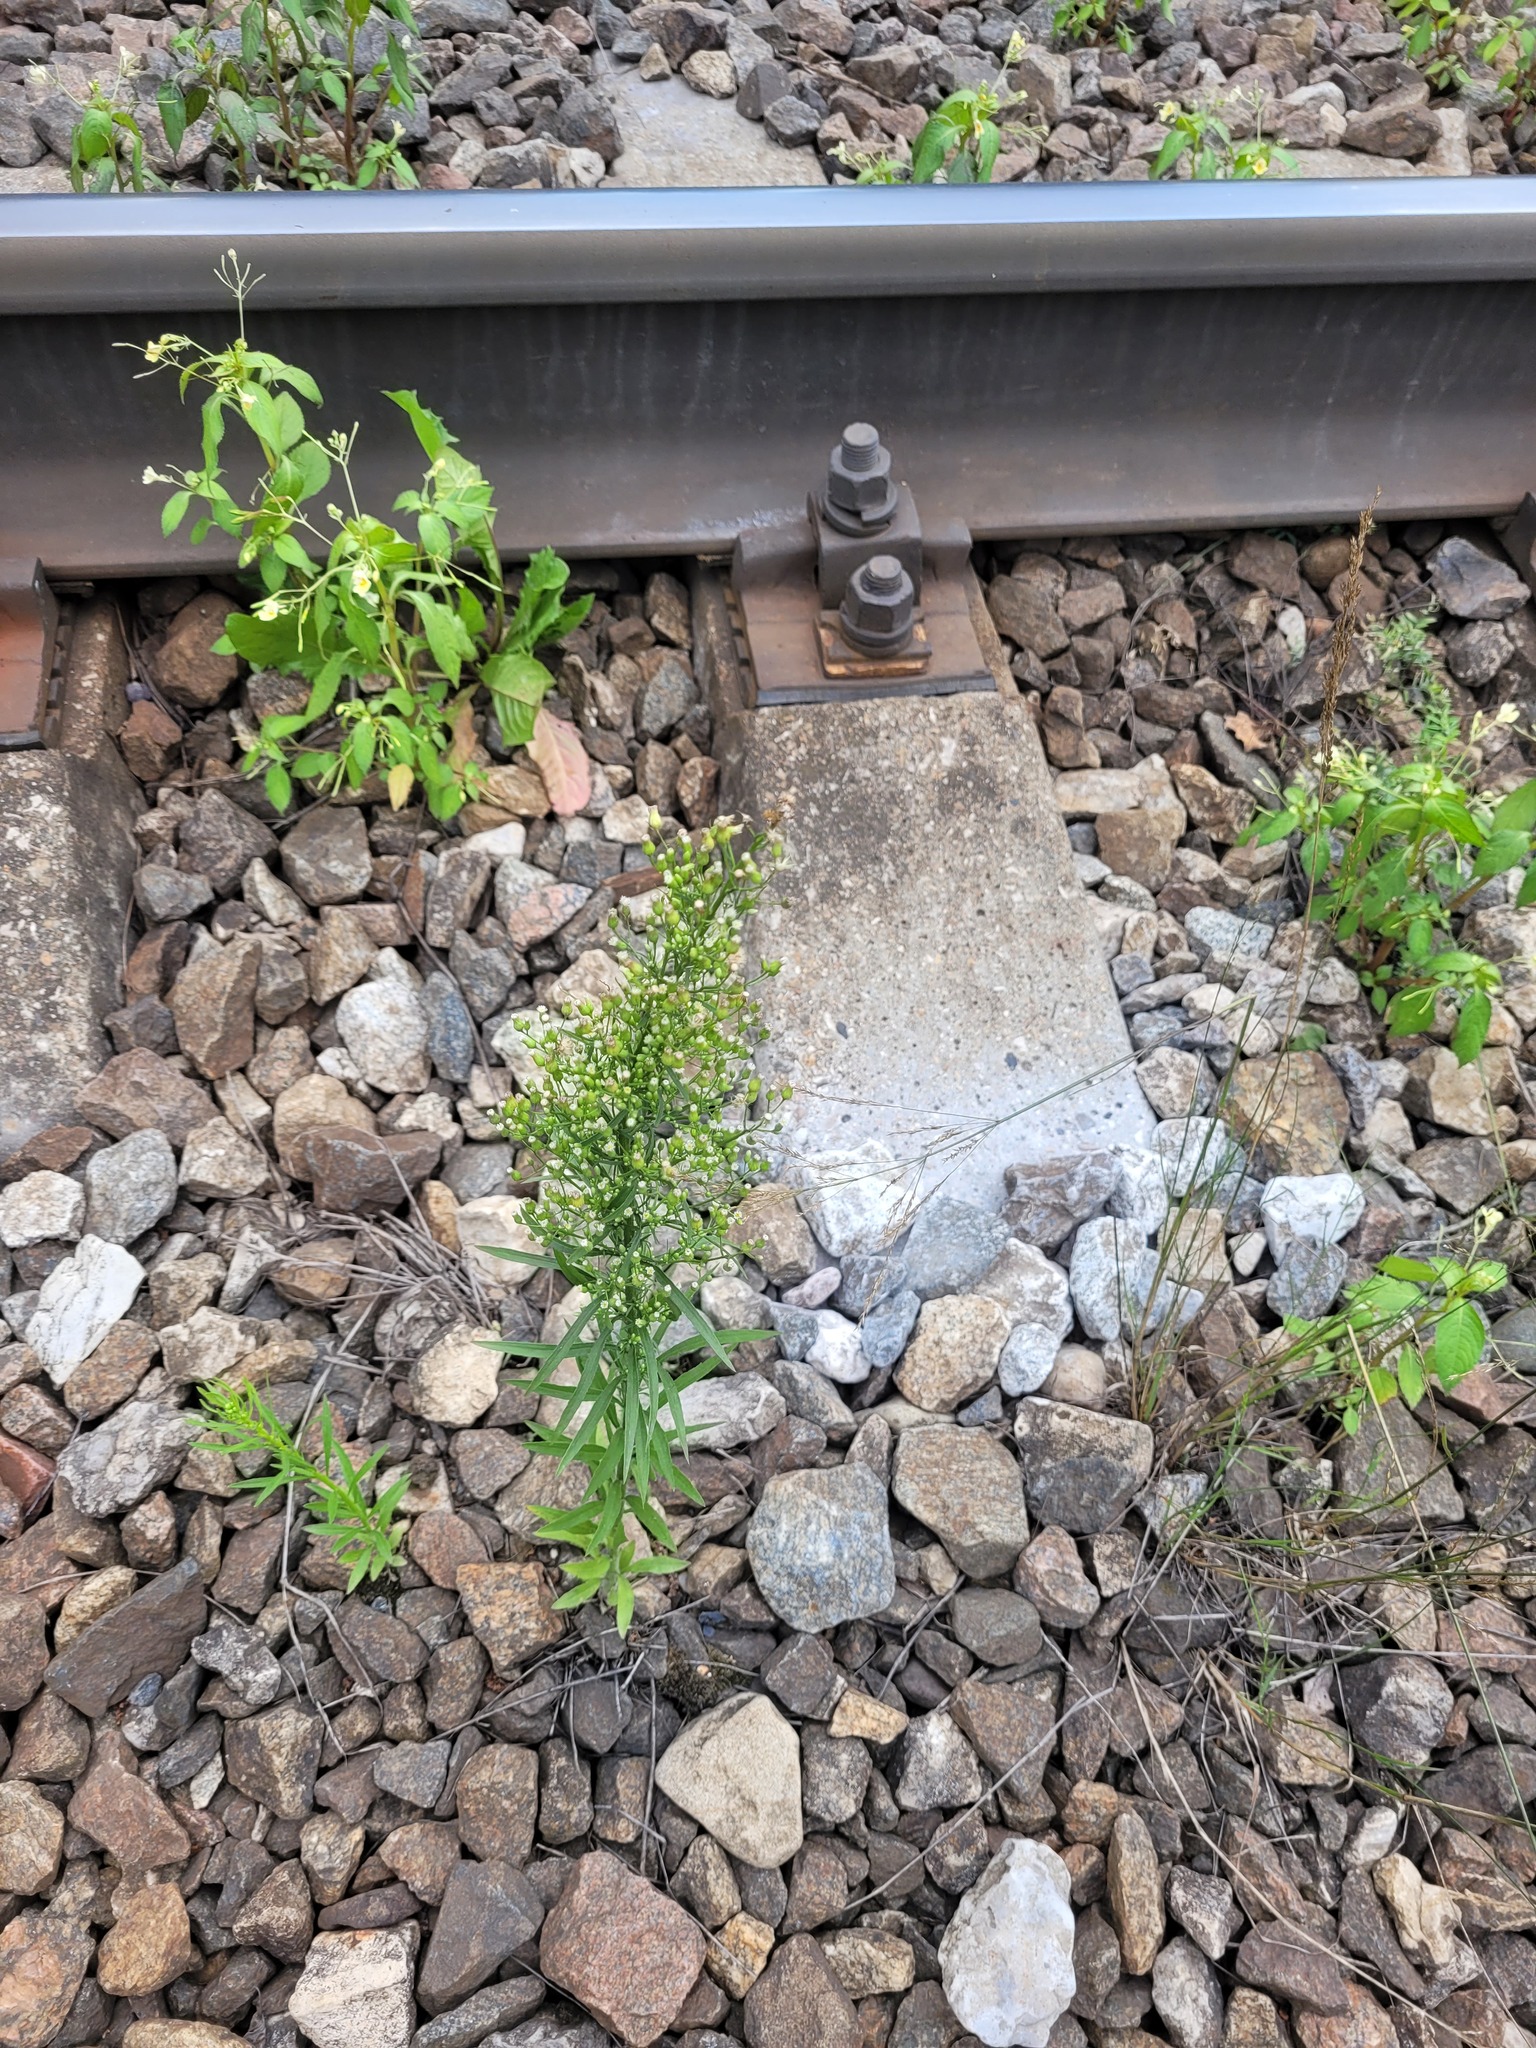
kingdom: Plantae
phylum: Tracheophyta
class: Magnoliopsida
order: Asterales
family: Asteraceae
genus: Erigeron
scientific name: Erigeron canadensis
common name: Canadian fleabane
